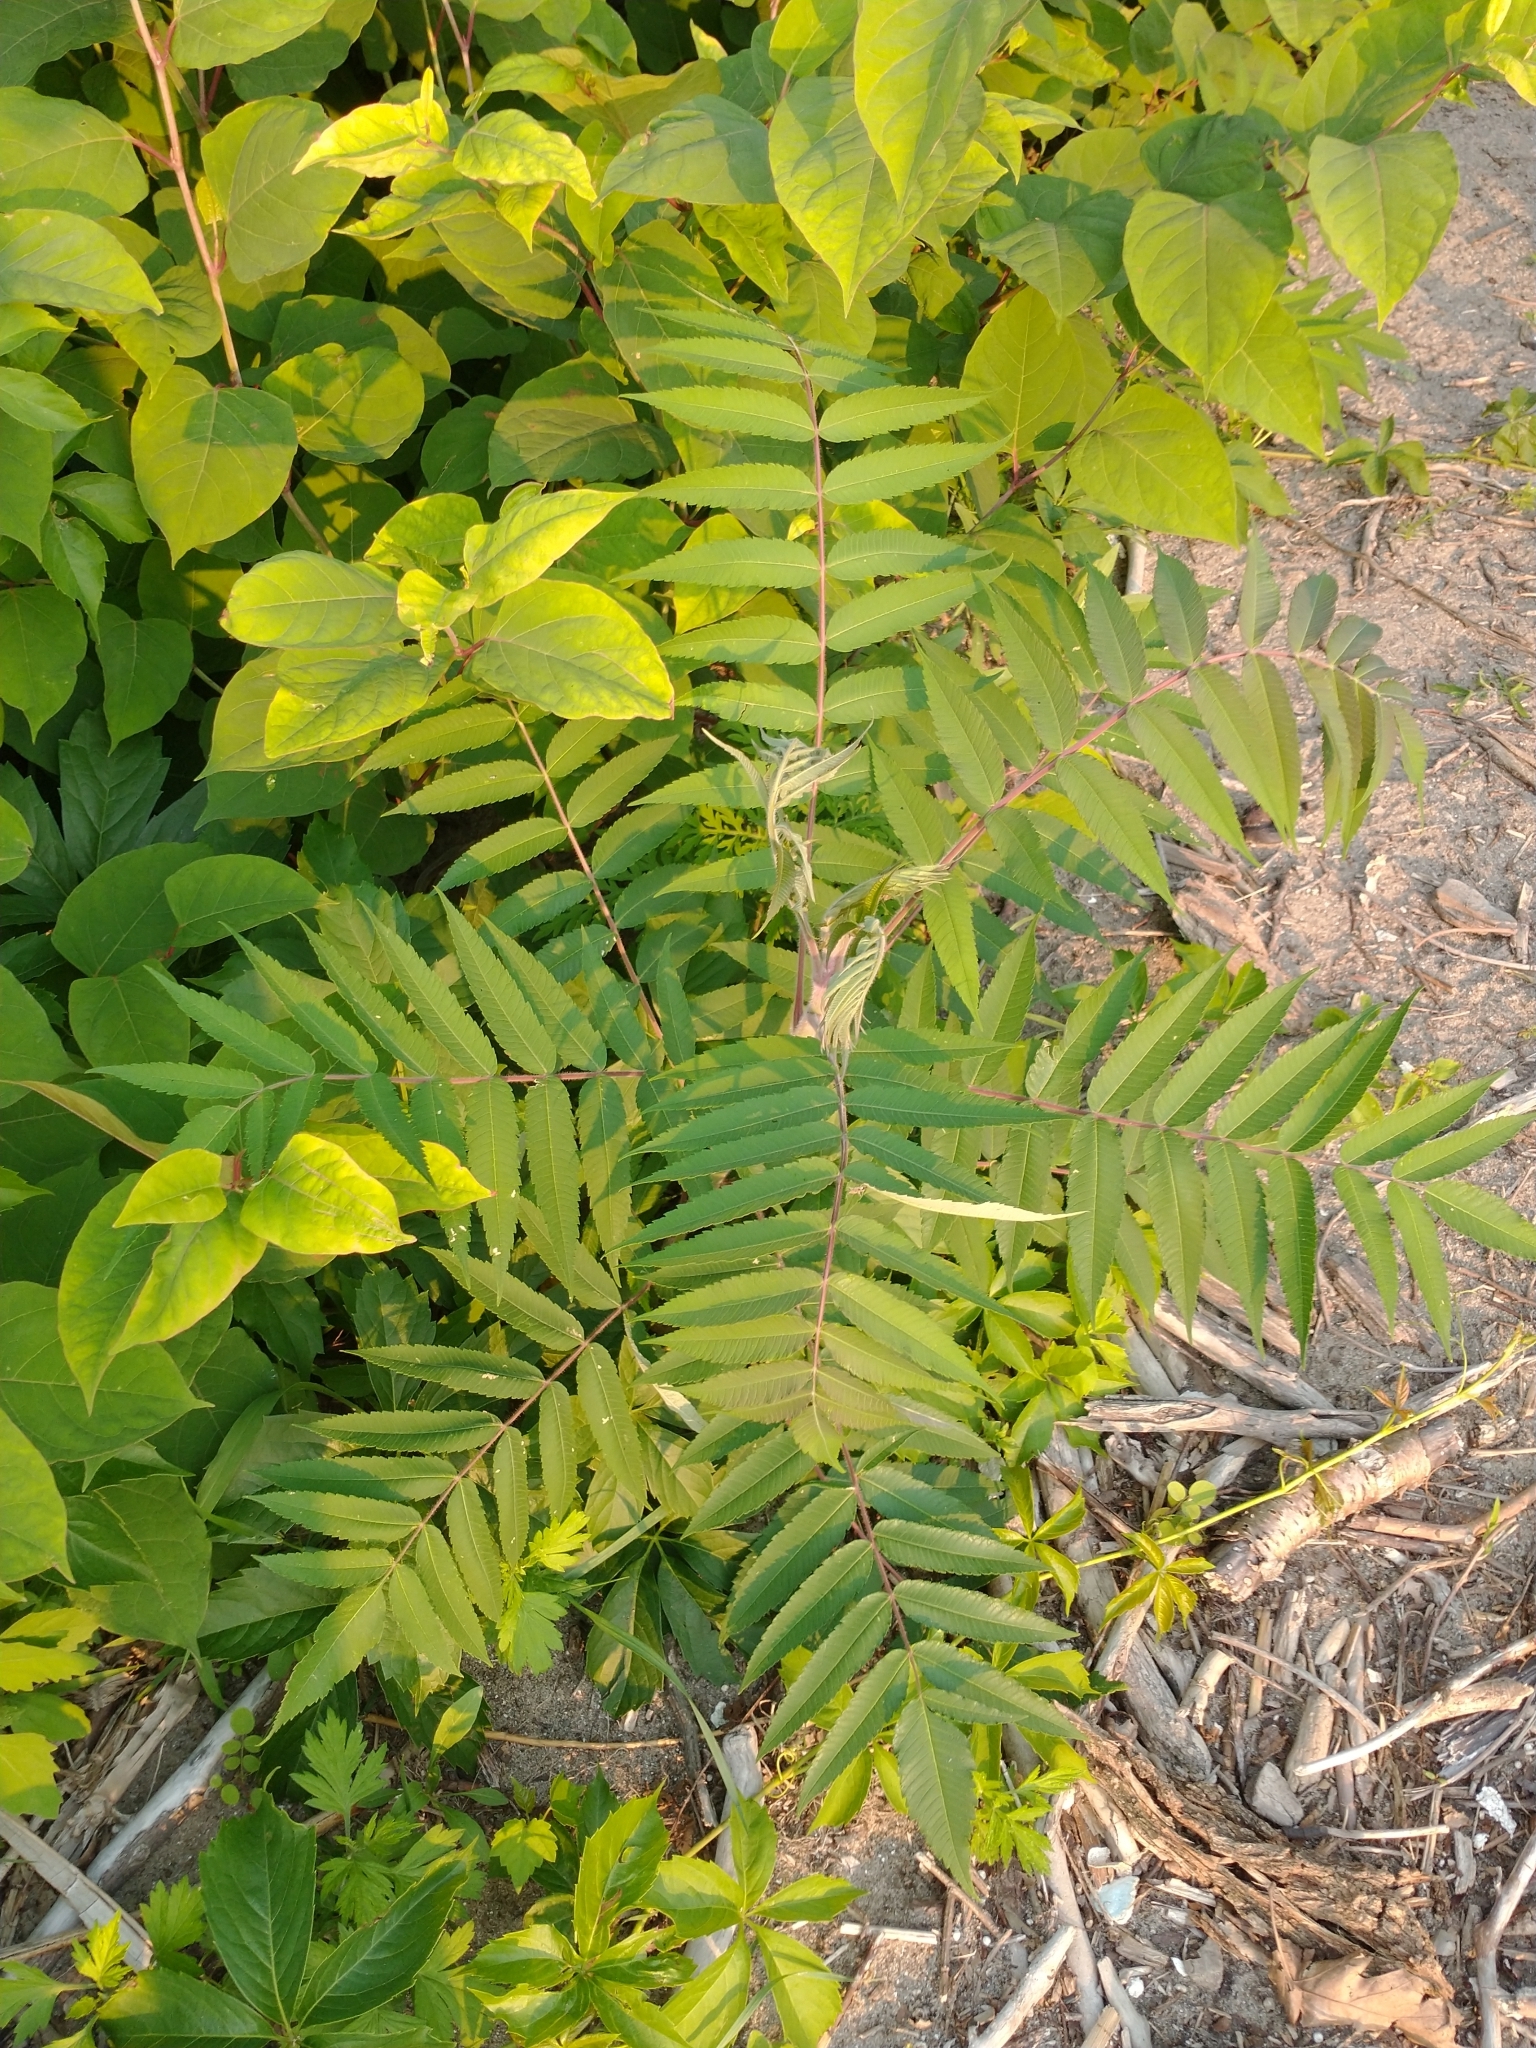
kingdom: Plantae
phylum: Tracheophyta
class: Magnoliopsida
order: Sapindales
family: Anacardiaceae
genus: Rhus
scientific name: Rhus typhina
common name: Staghorn sumac
